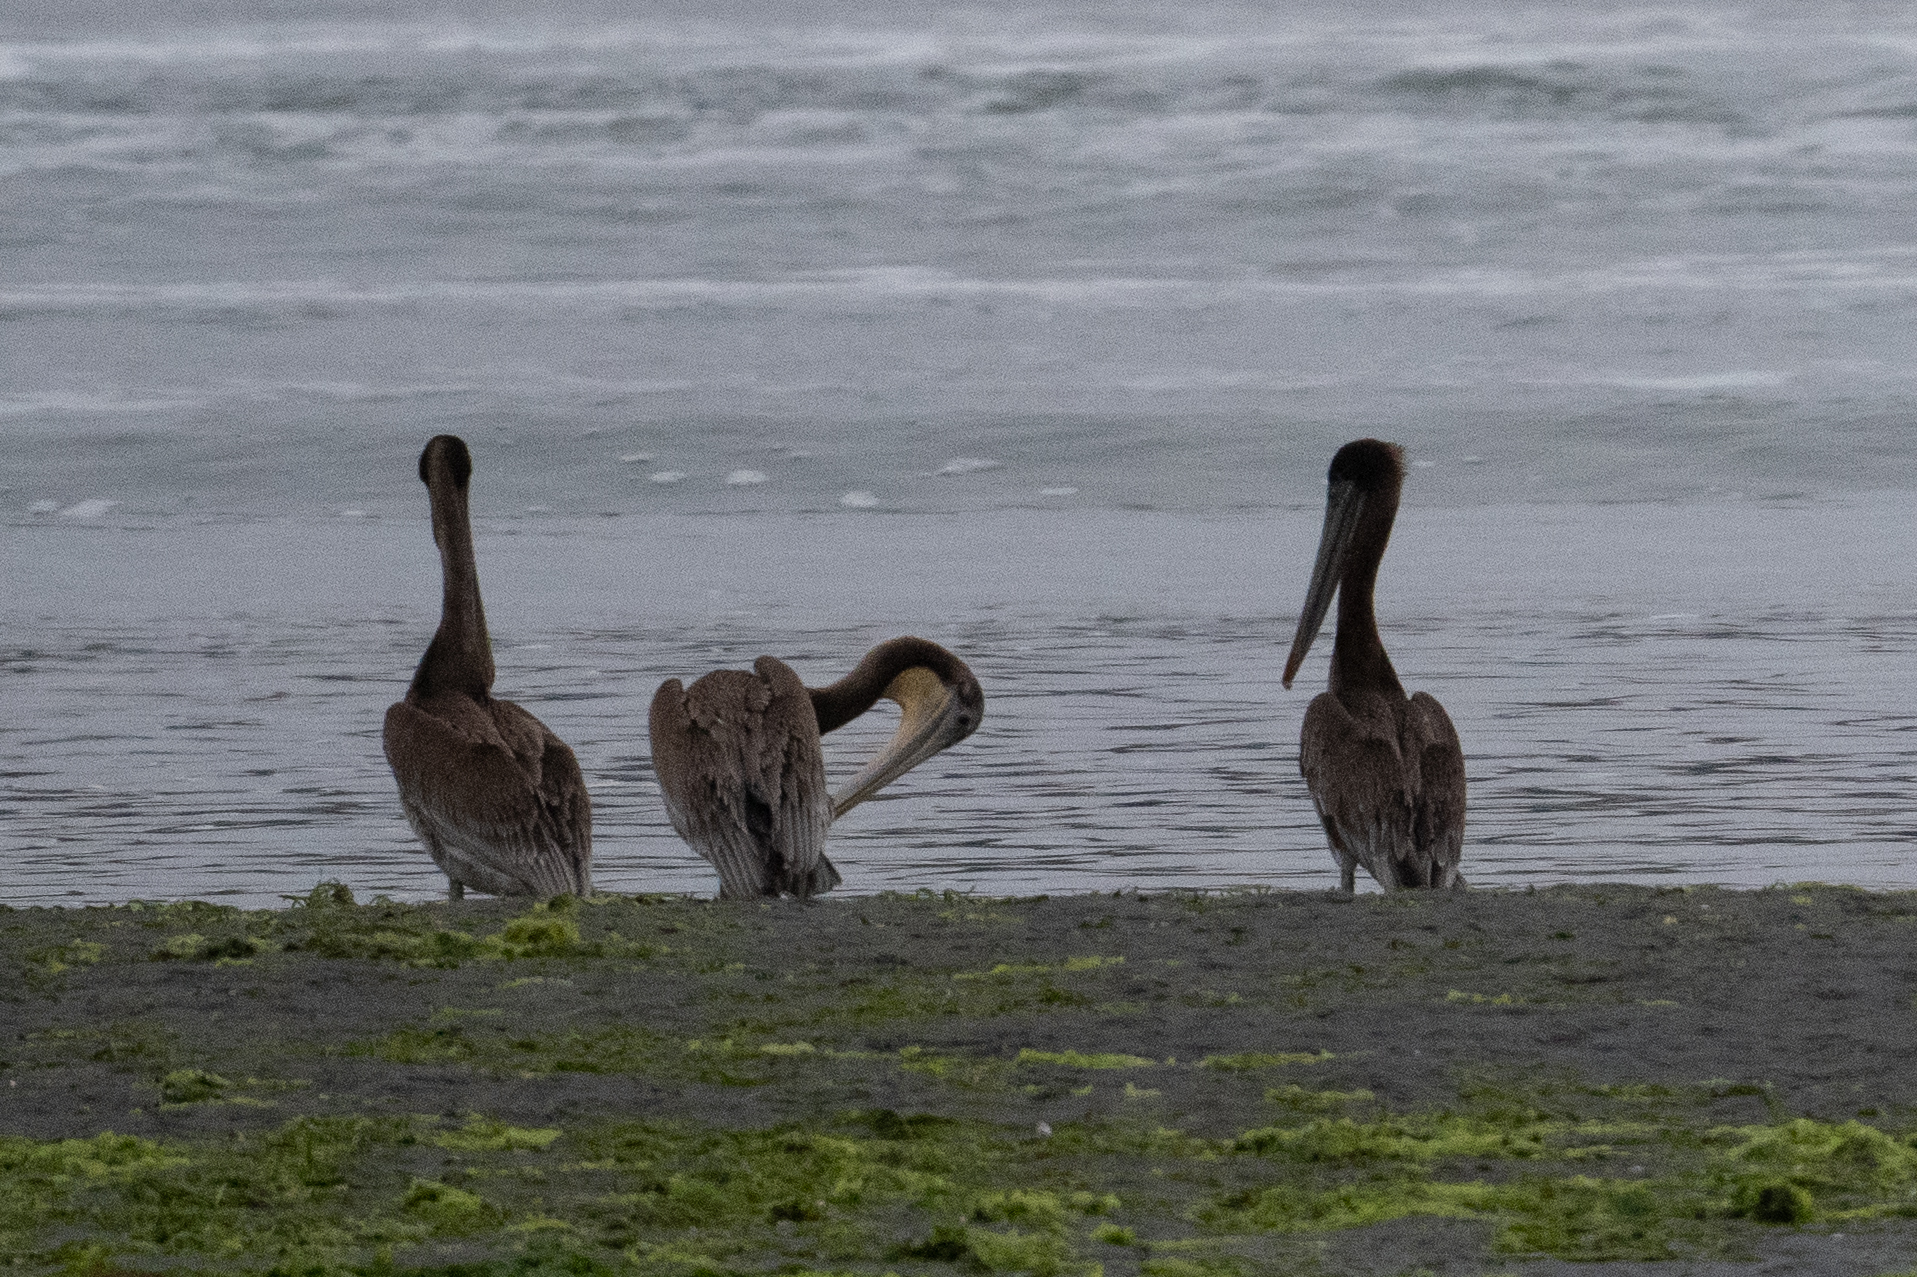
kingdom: Animalia
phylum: Chordata
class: Aves
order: Pelecaniformes
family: Pelecanidae
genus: Pelecanus
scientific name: Pelecanus occidentalis
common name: Brown pelican
